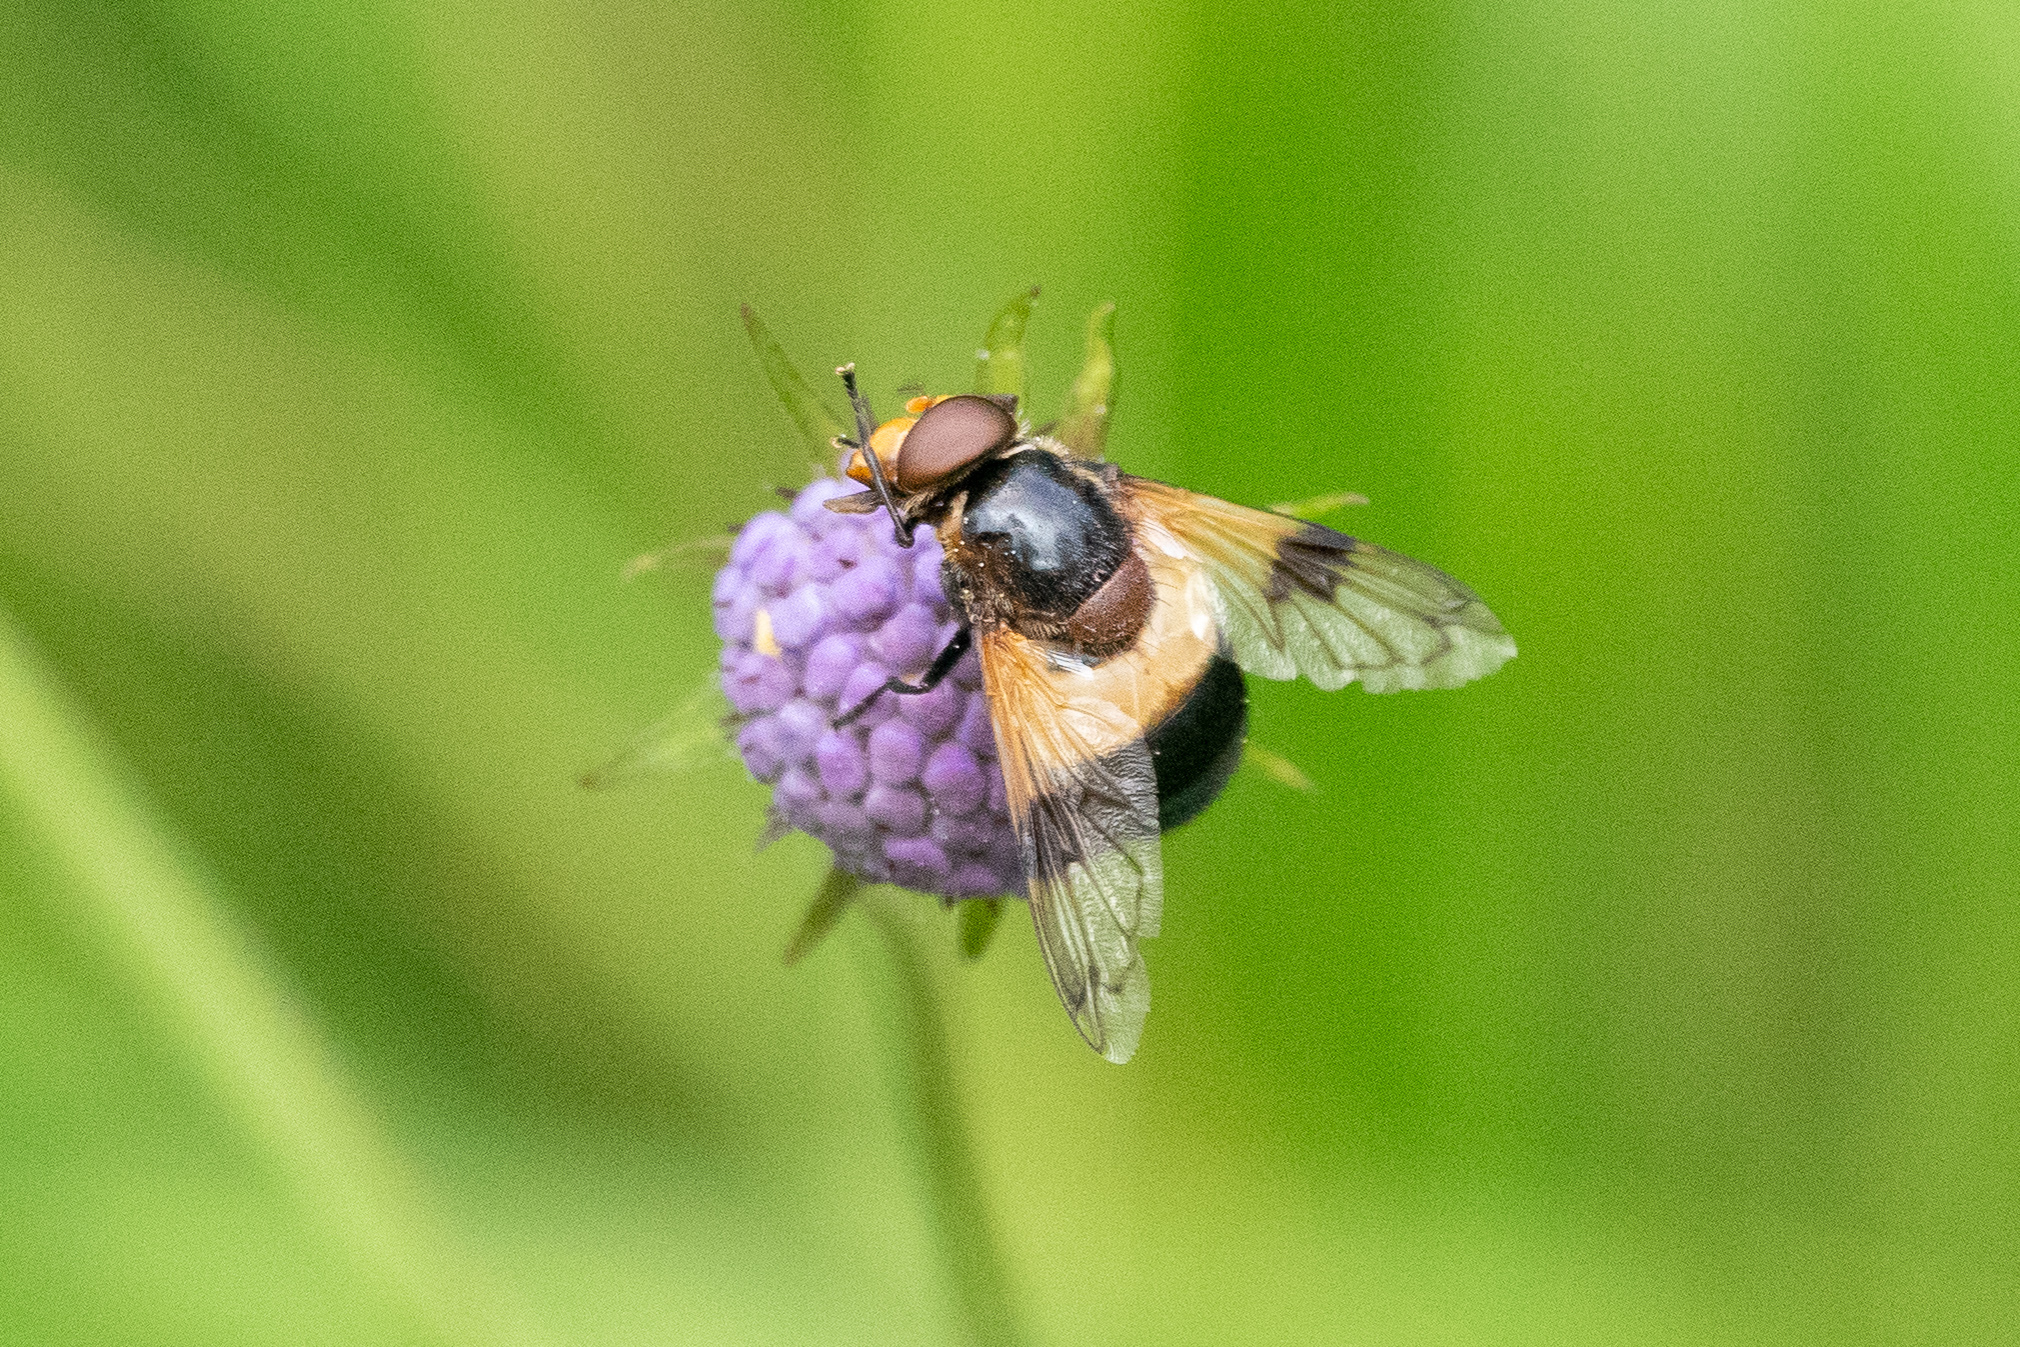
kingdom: Animalia
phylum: Arthropoda
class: Insecta
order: Diptera
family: Syrphidae
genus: Volucella
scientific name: Volucella pellucens
